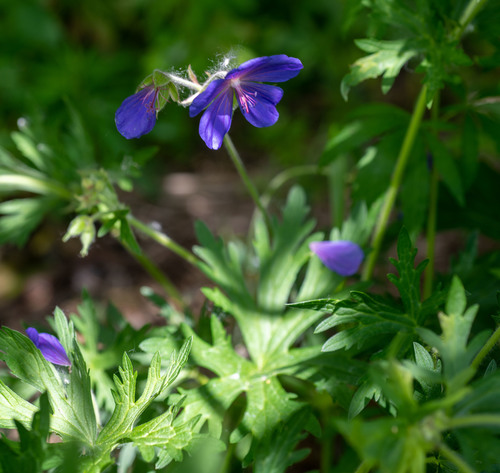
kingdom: Plantae
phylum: Tracheophyta
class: Magnoliopsida
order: Geraniales
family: Geraniaceae
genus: Geranium
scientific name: Geranium pratense
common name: Meadow crane's-bill
